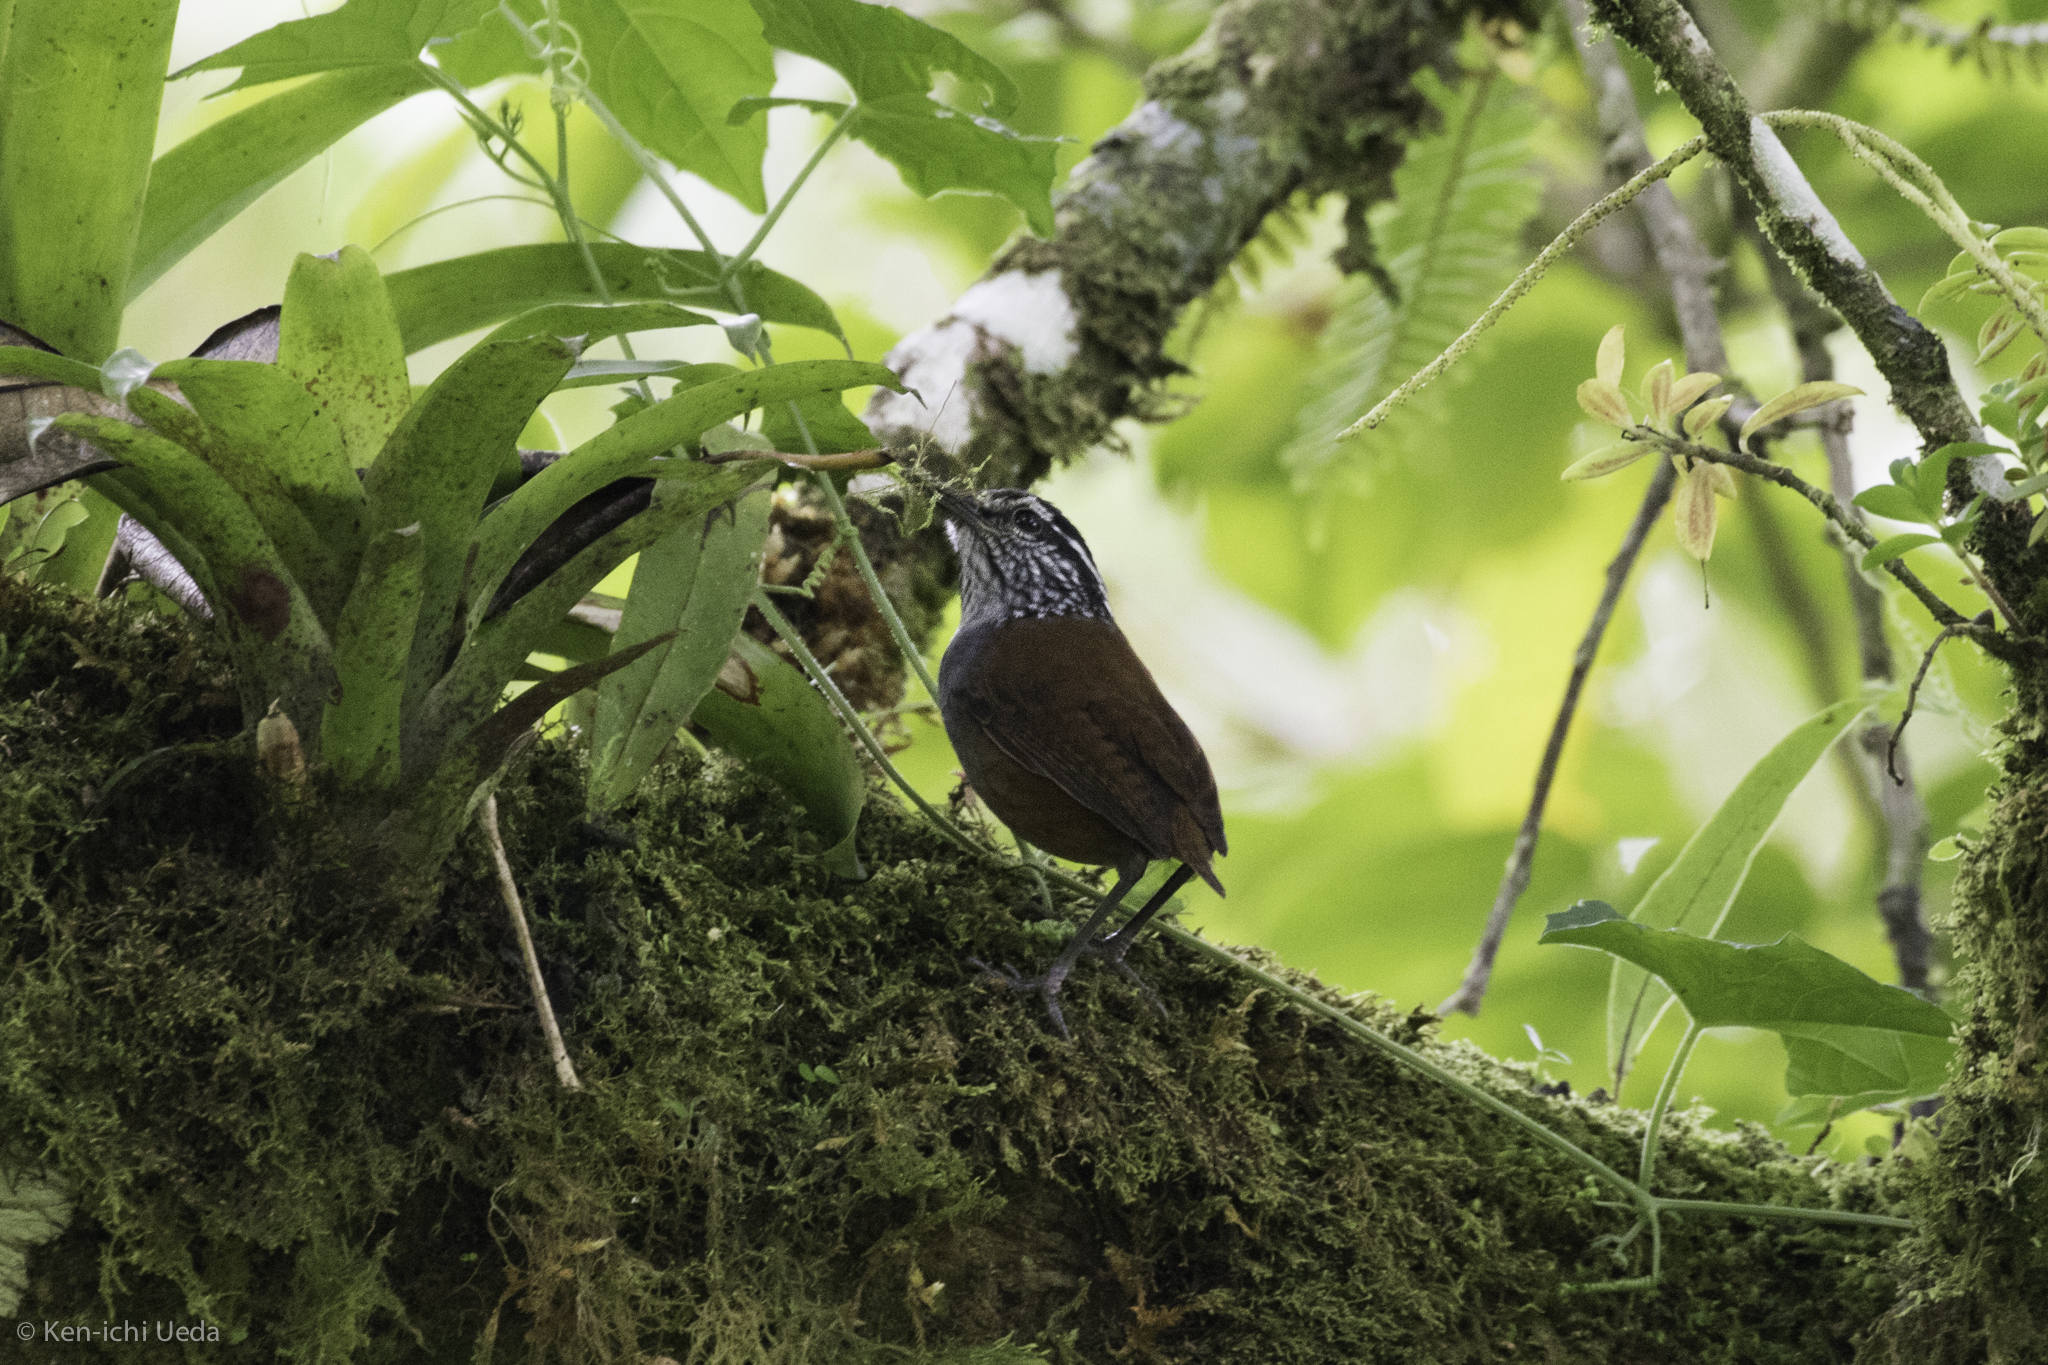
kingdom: Animalia
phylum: Chordata
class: Aves
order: Passeriformes
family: Troglodytidae
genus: Henicorhina
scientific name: Henicorhina leucophrys
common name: Gray-breasted wood-wren
